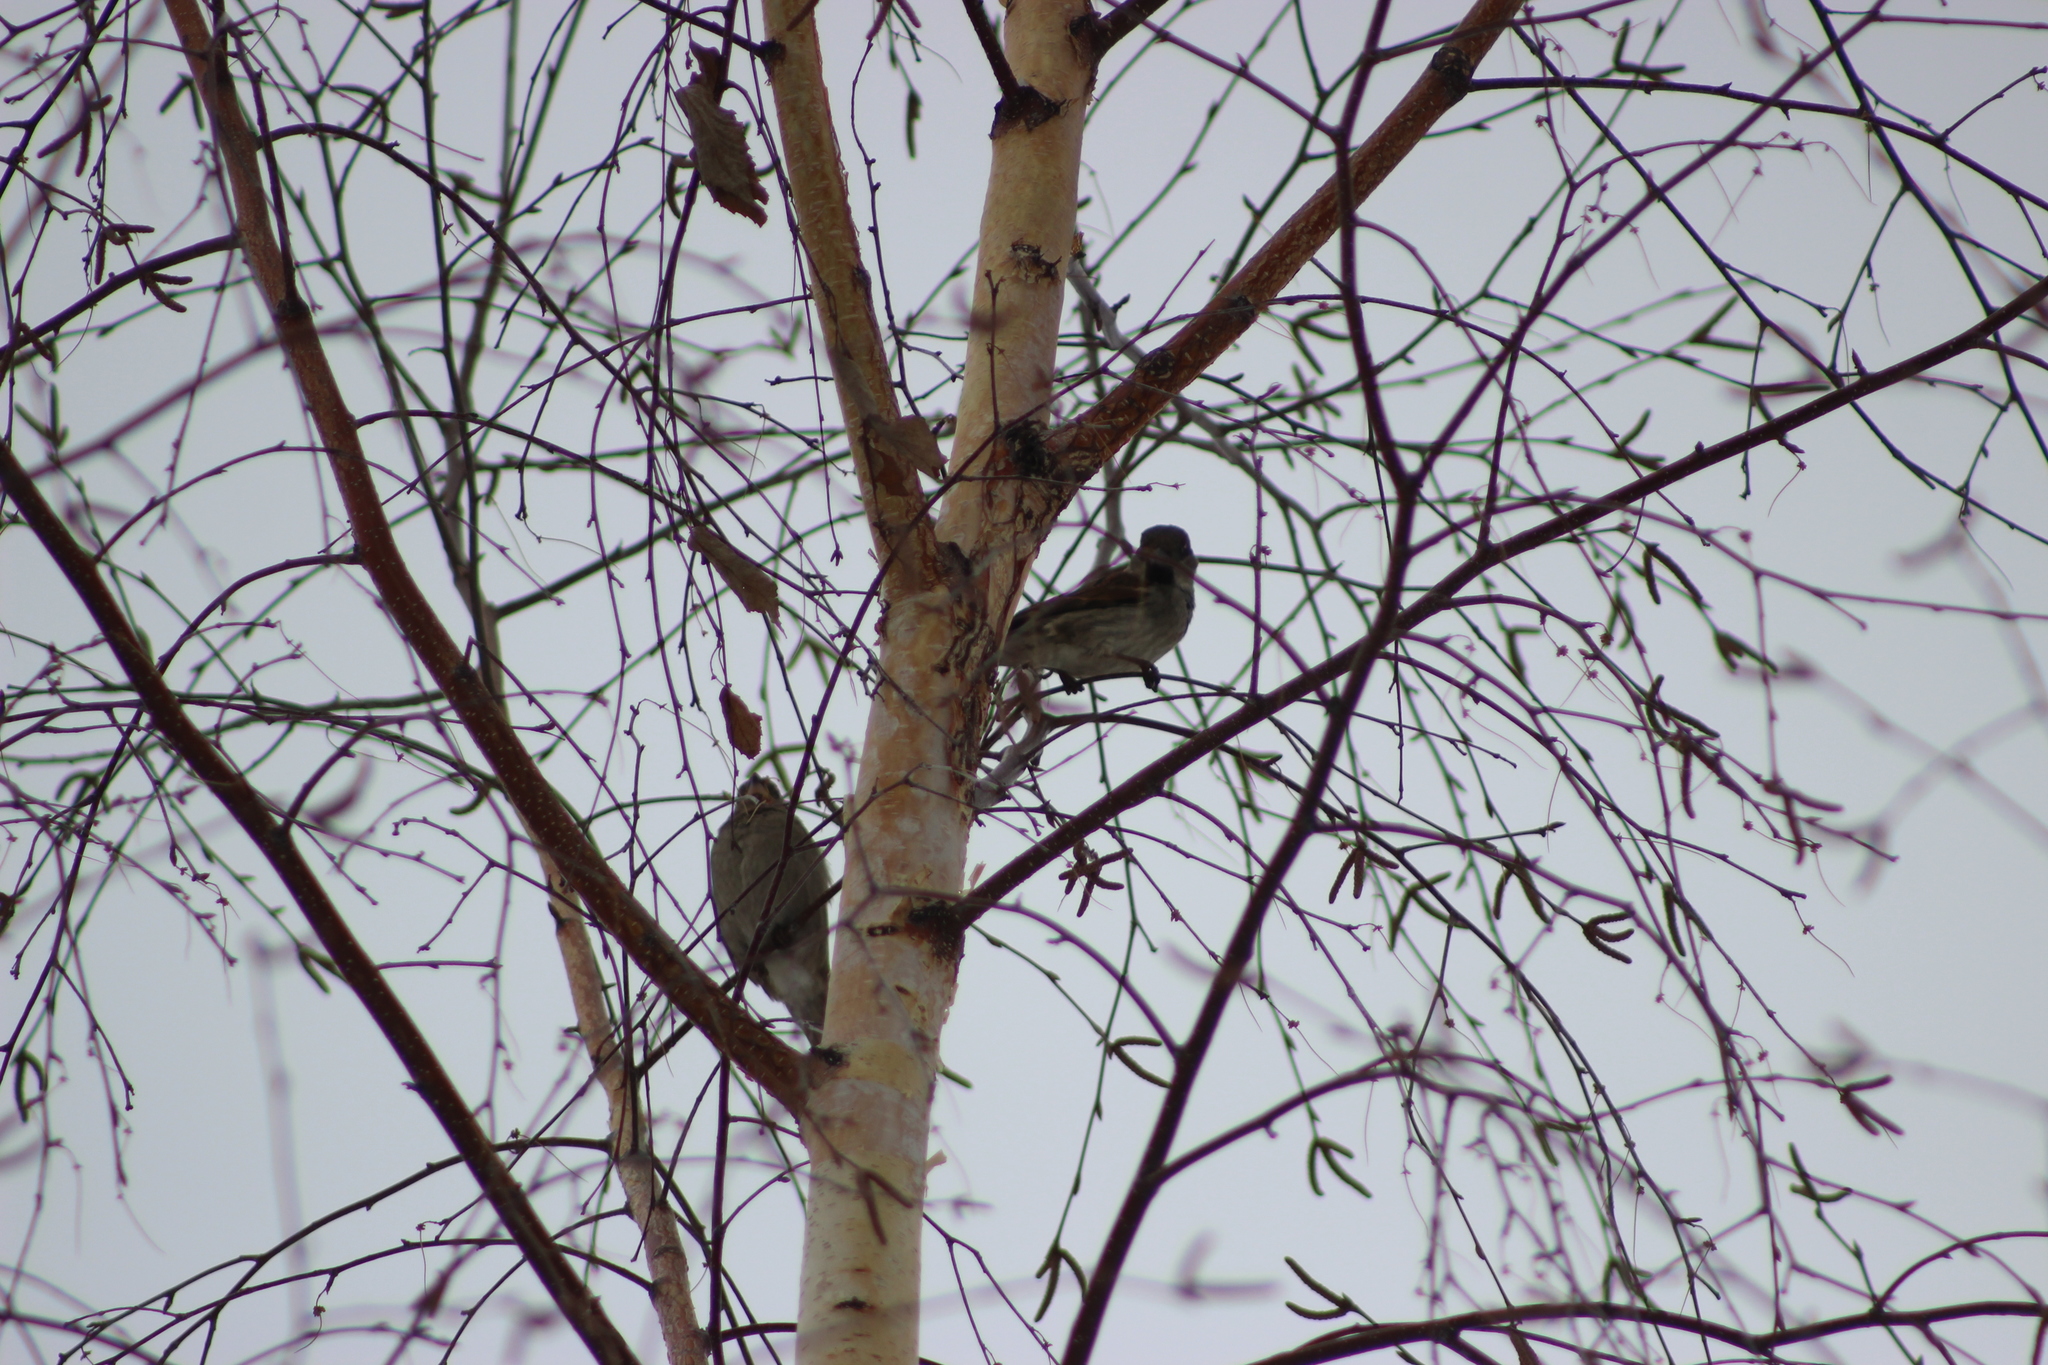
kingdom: Animalia
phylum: Chordata
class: Aves
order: Passeriformes
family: Passeridae
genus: Passer
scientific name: Passer domesticus
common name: House sparrow
